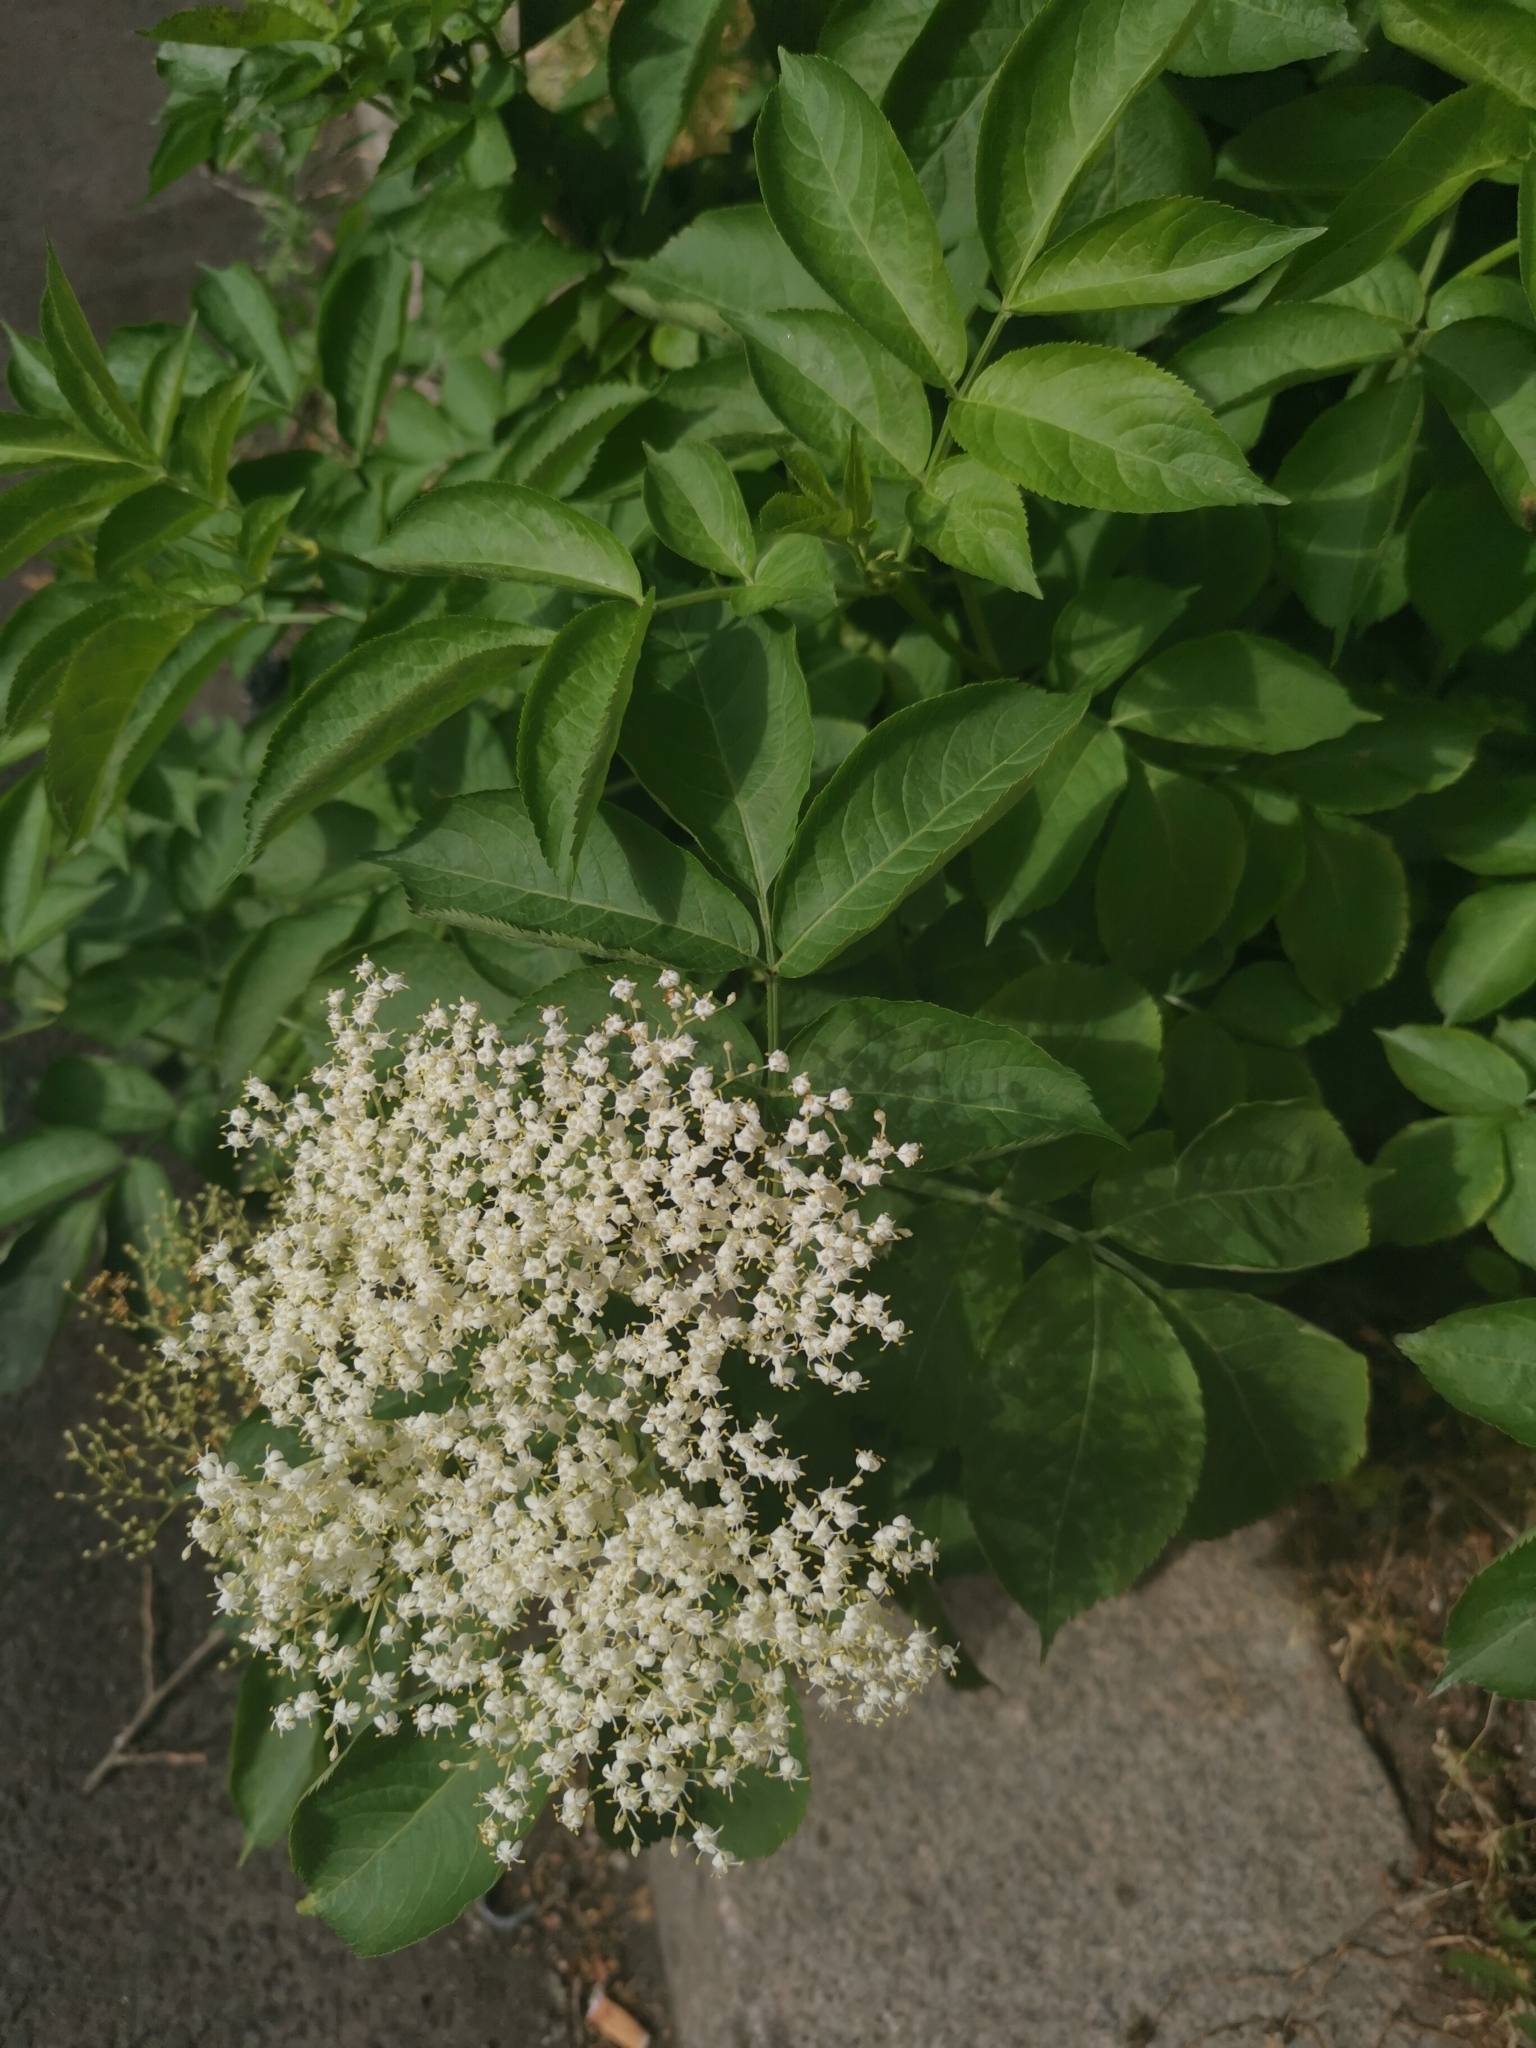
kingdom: Plantae
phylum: Tracheophyta
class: Magnoliopsida
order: Dipsacales
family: Viburnaceae
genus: Sambucus
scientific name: Sambucus nigra
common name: Elder
